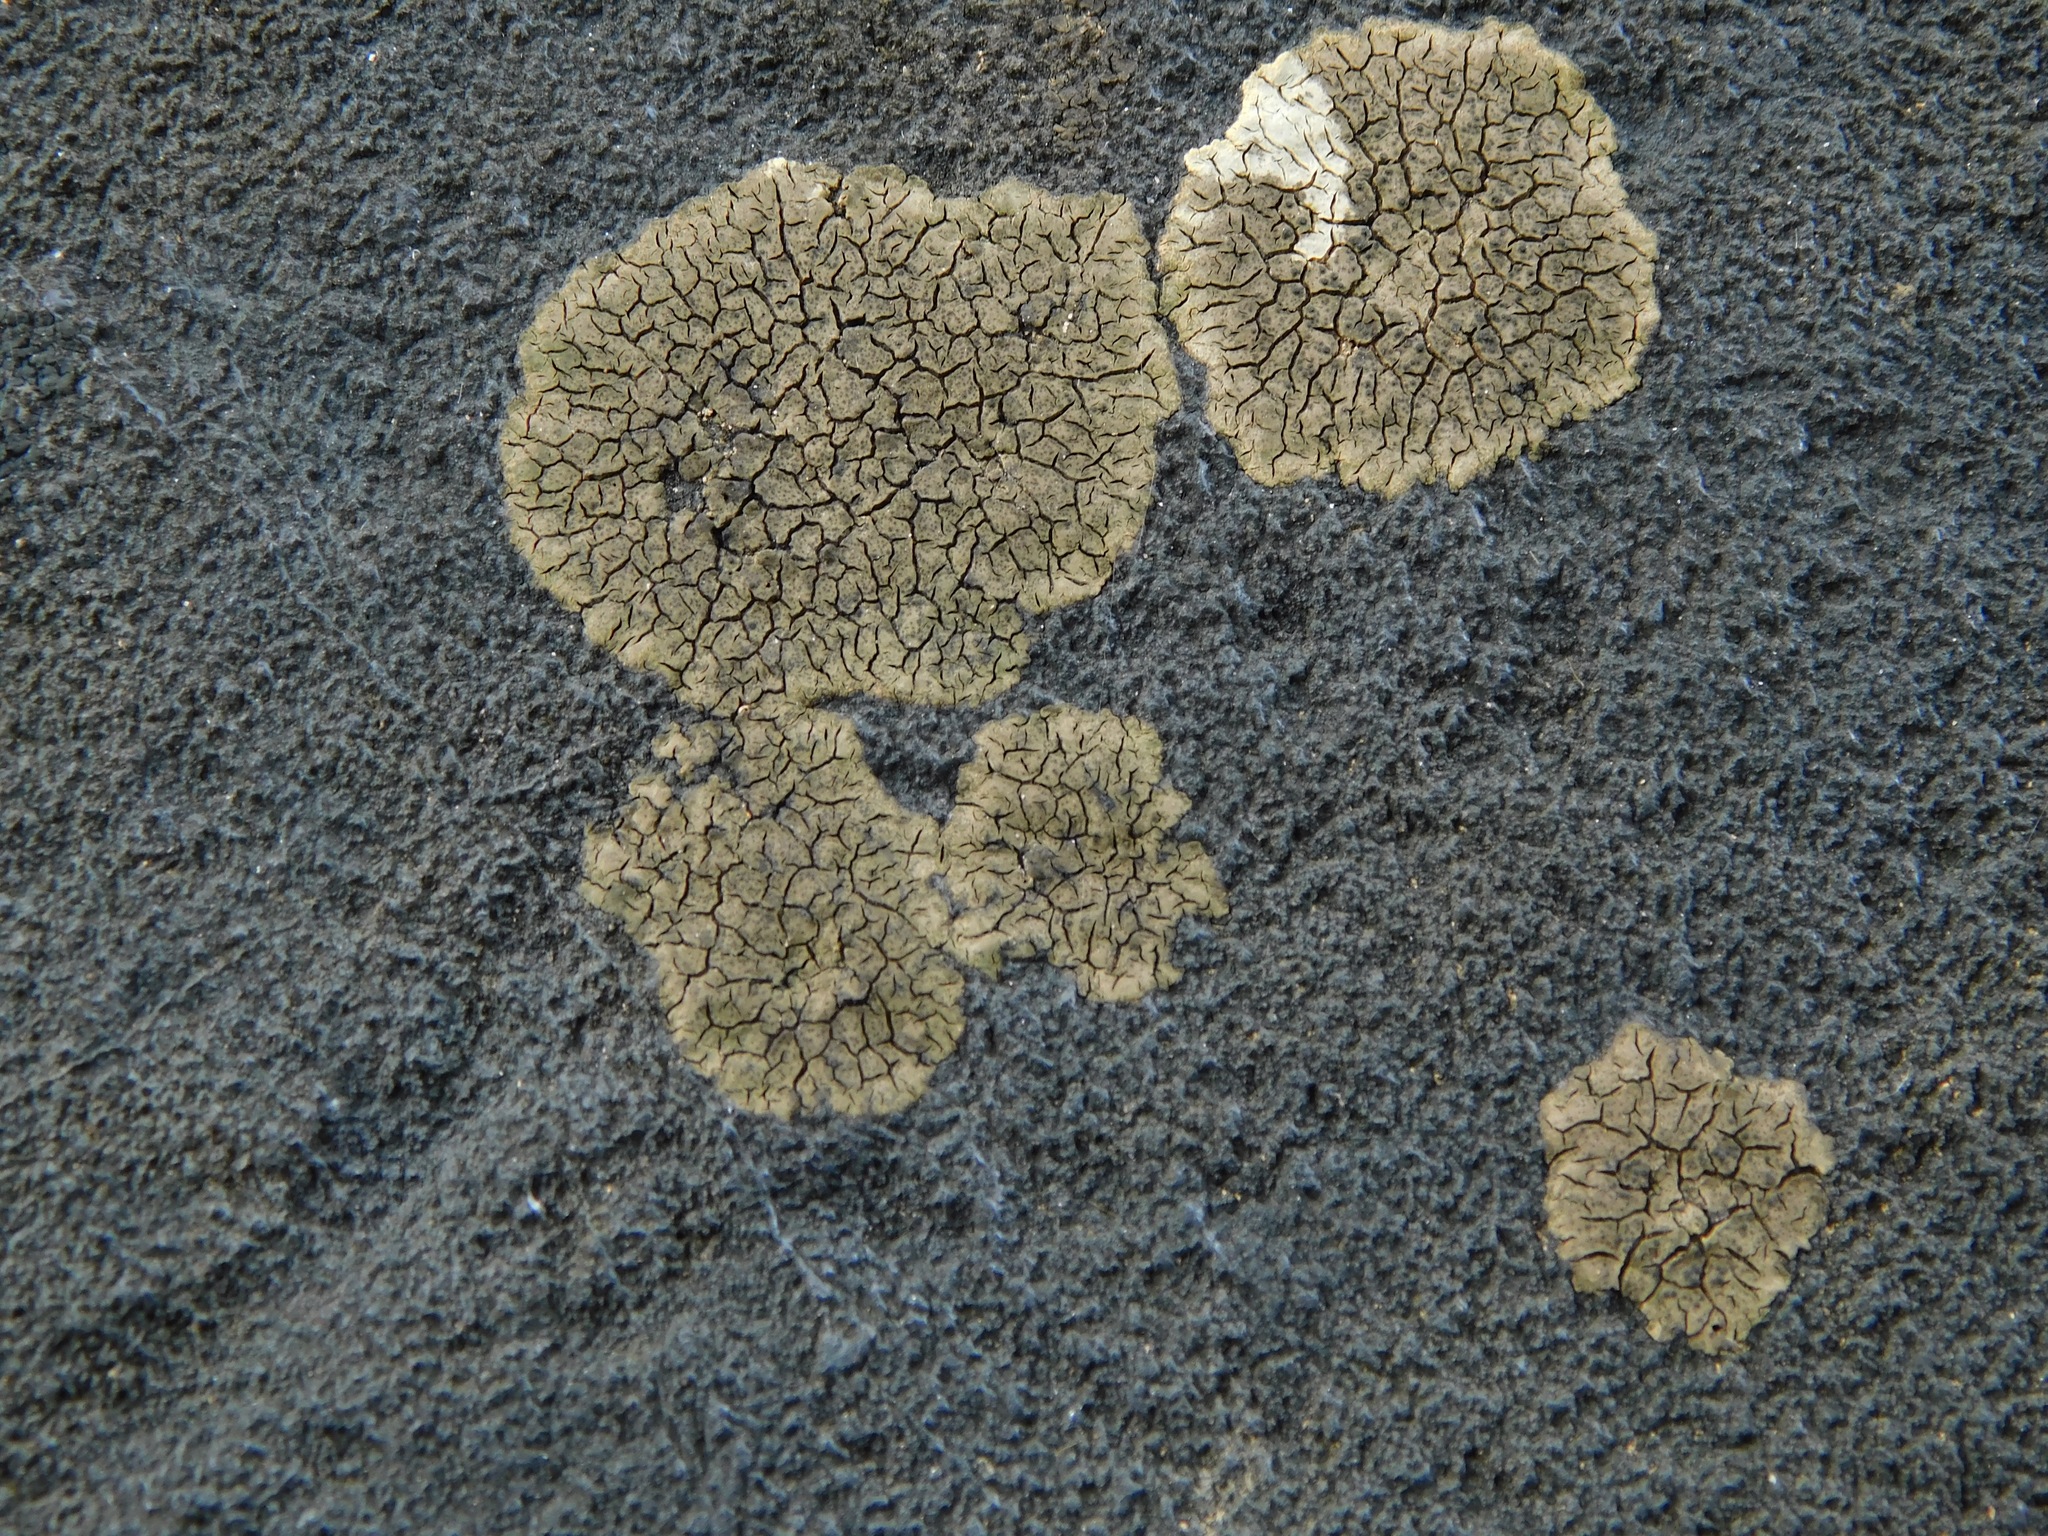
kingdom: Fungi
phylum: Ascomycota
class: Eurotiomycetes
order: Verrucariales
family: Verrucariaceae
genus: Verrucaria
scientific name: Verrucaria fayettensis
